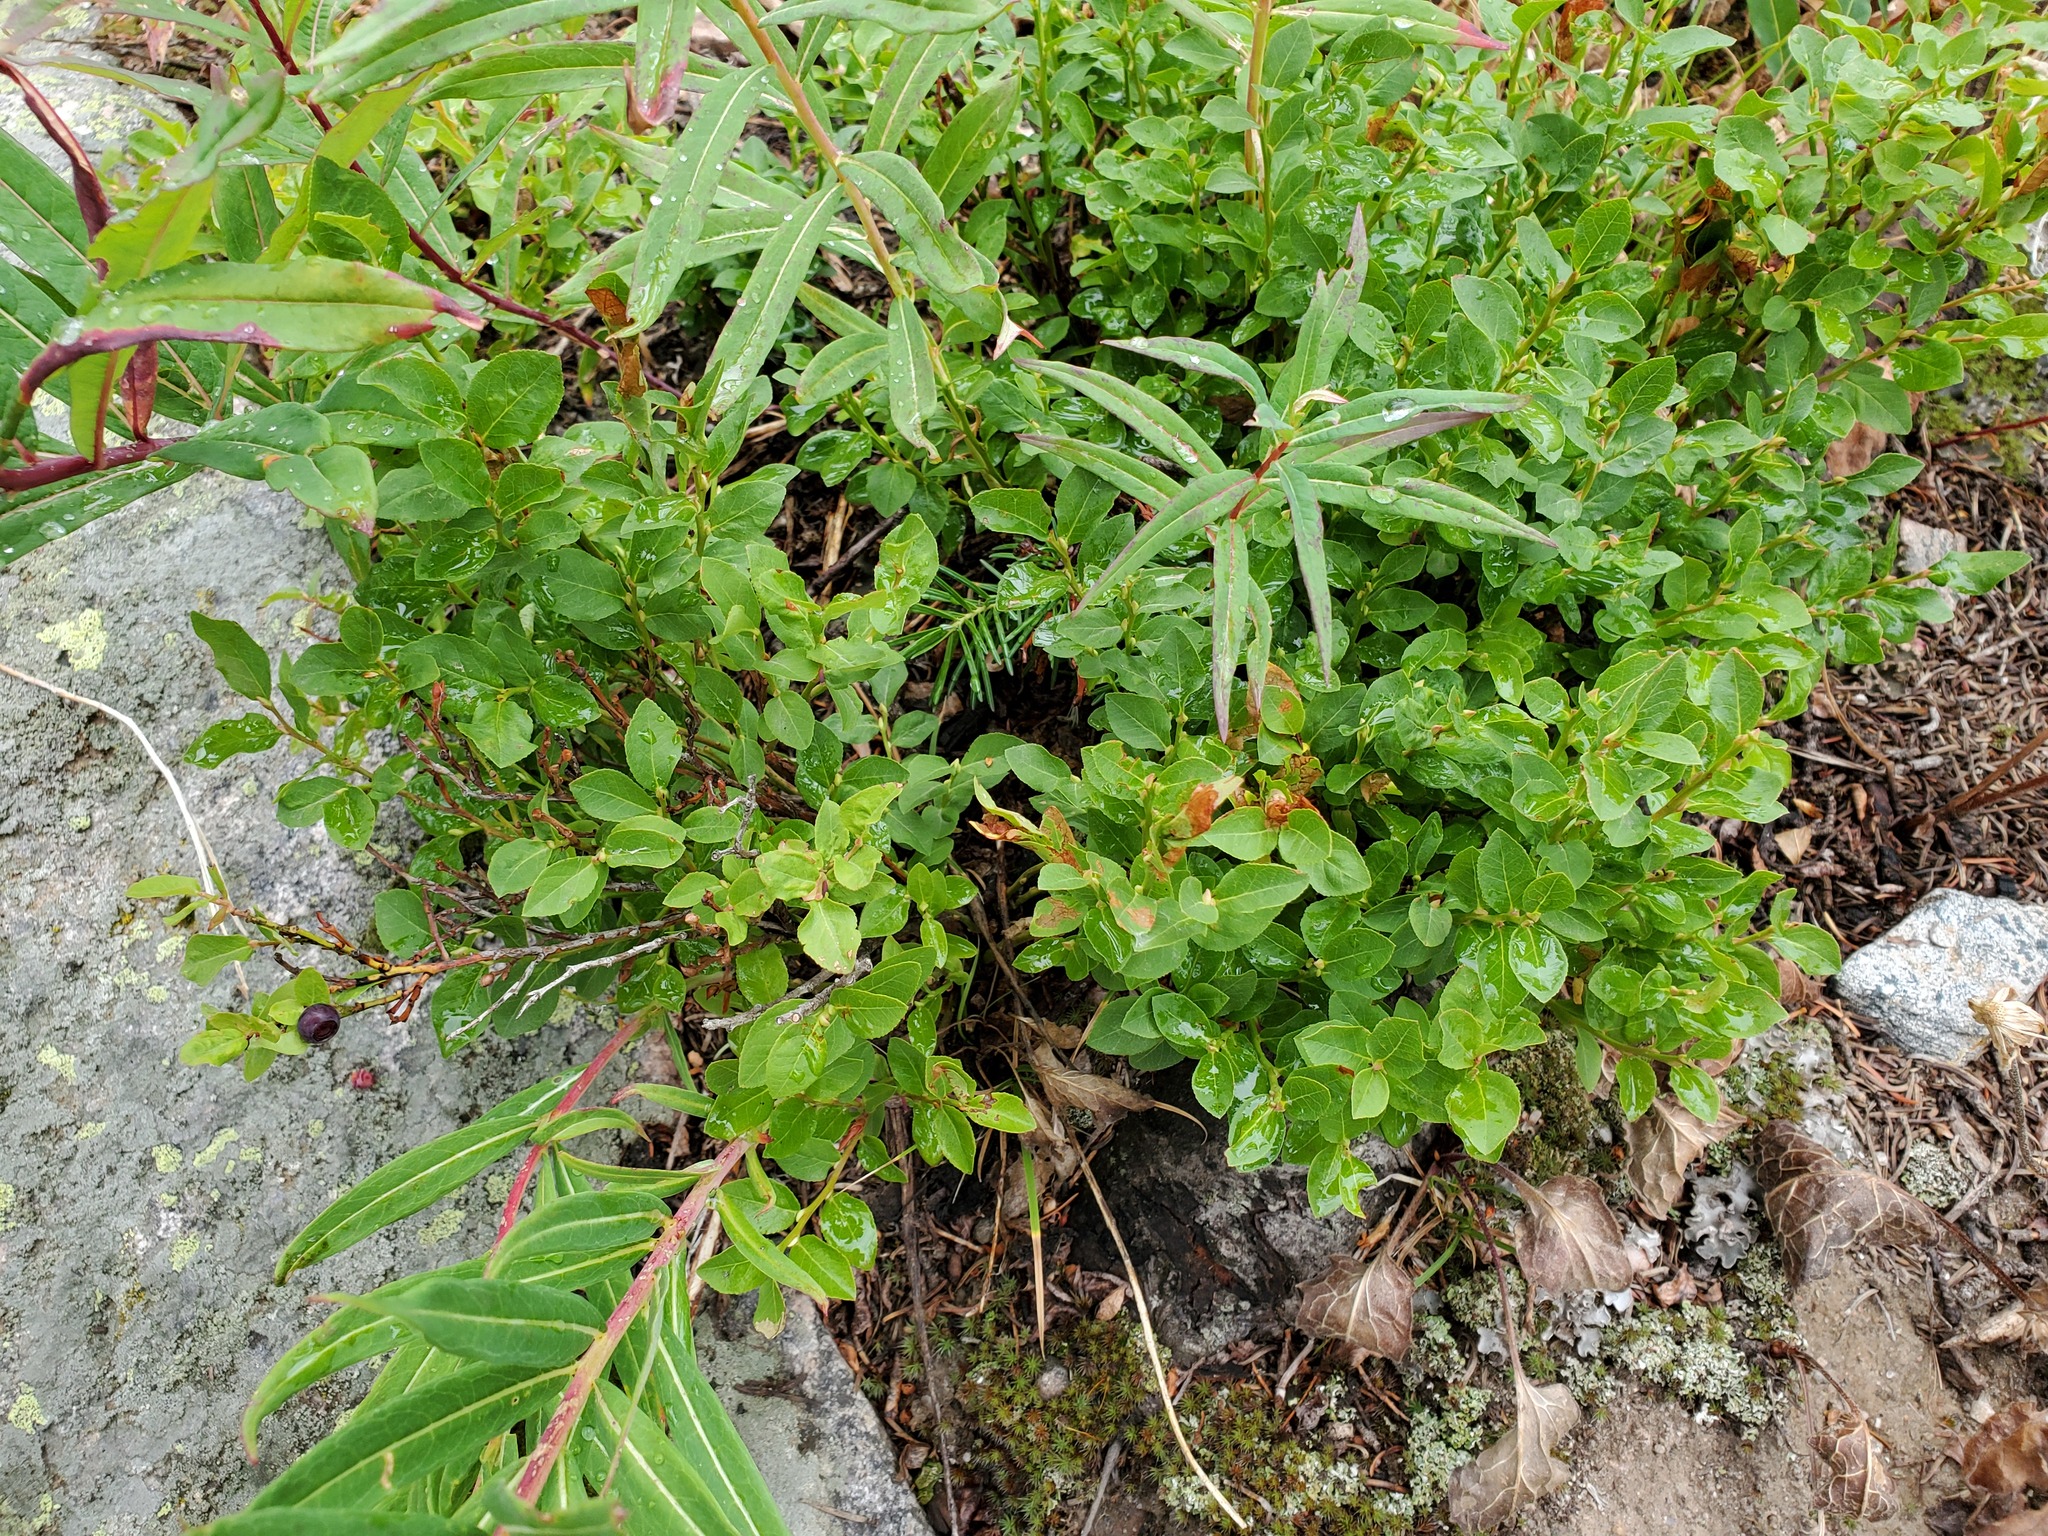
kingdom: Plantae
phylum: Tracheophyta
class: Magnoliopsida
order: Ericales
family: Ericaceae
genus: Vaccinium
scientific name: Vaccinium myrtillus
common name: Bilberry
